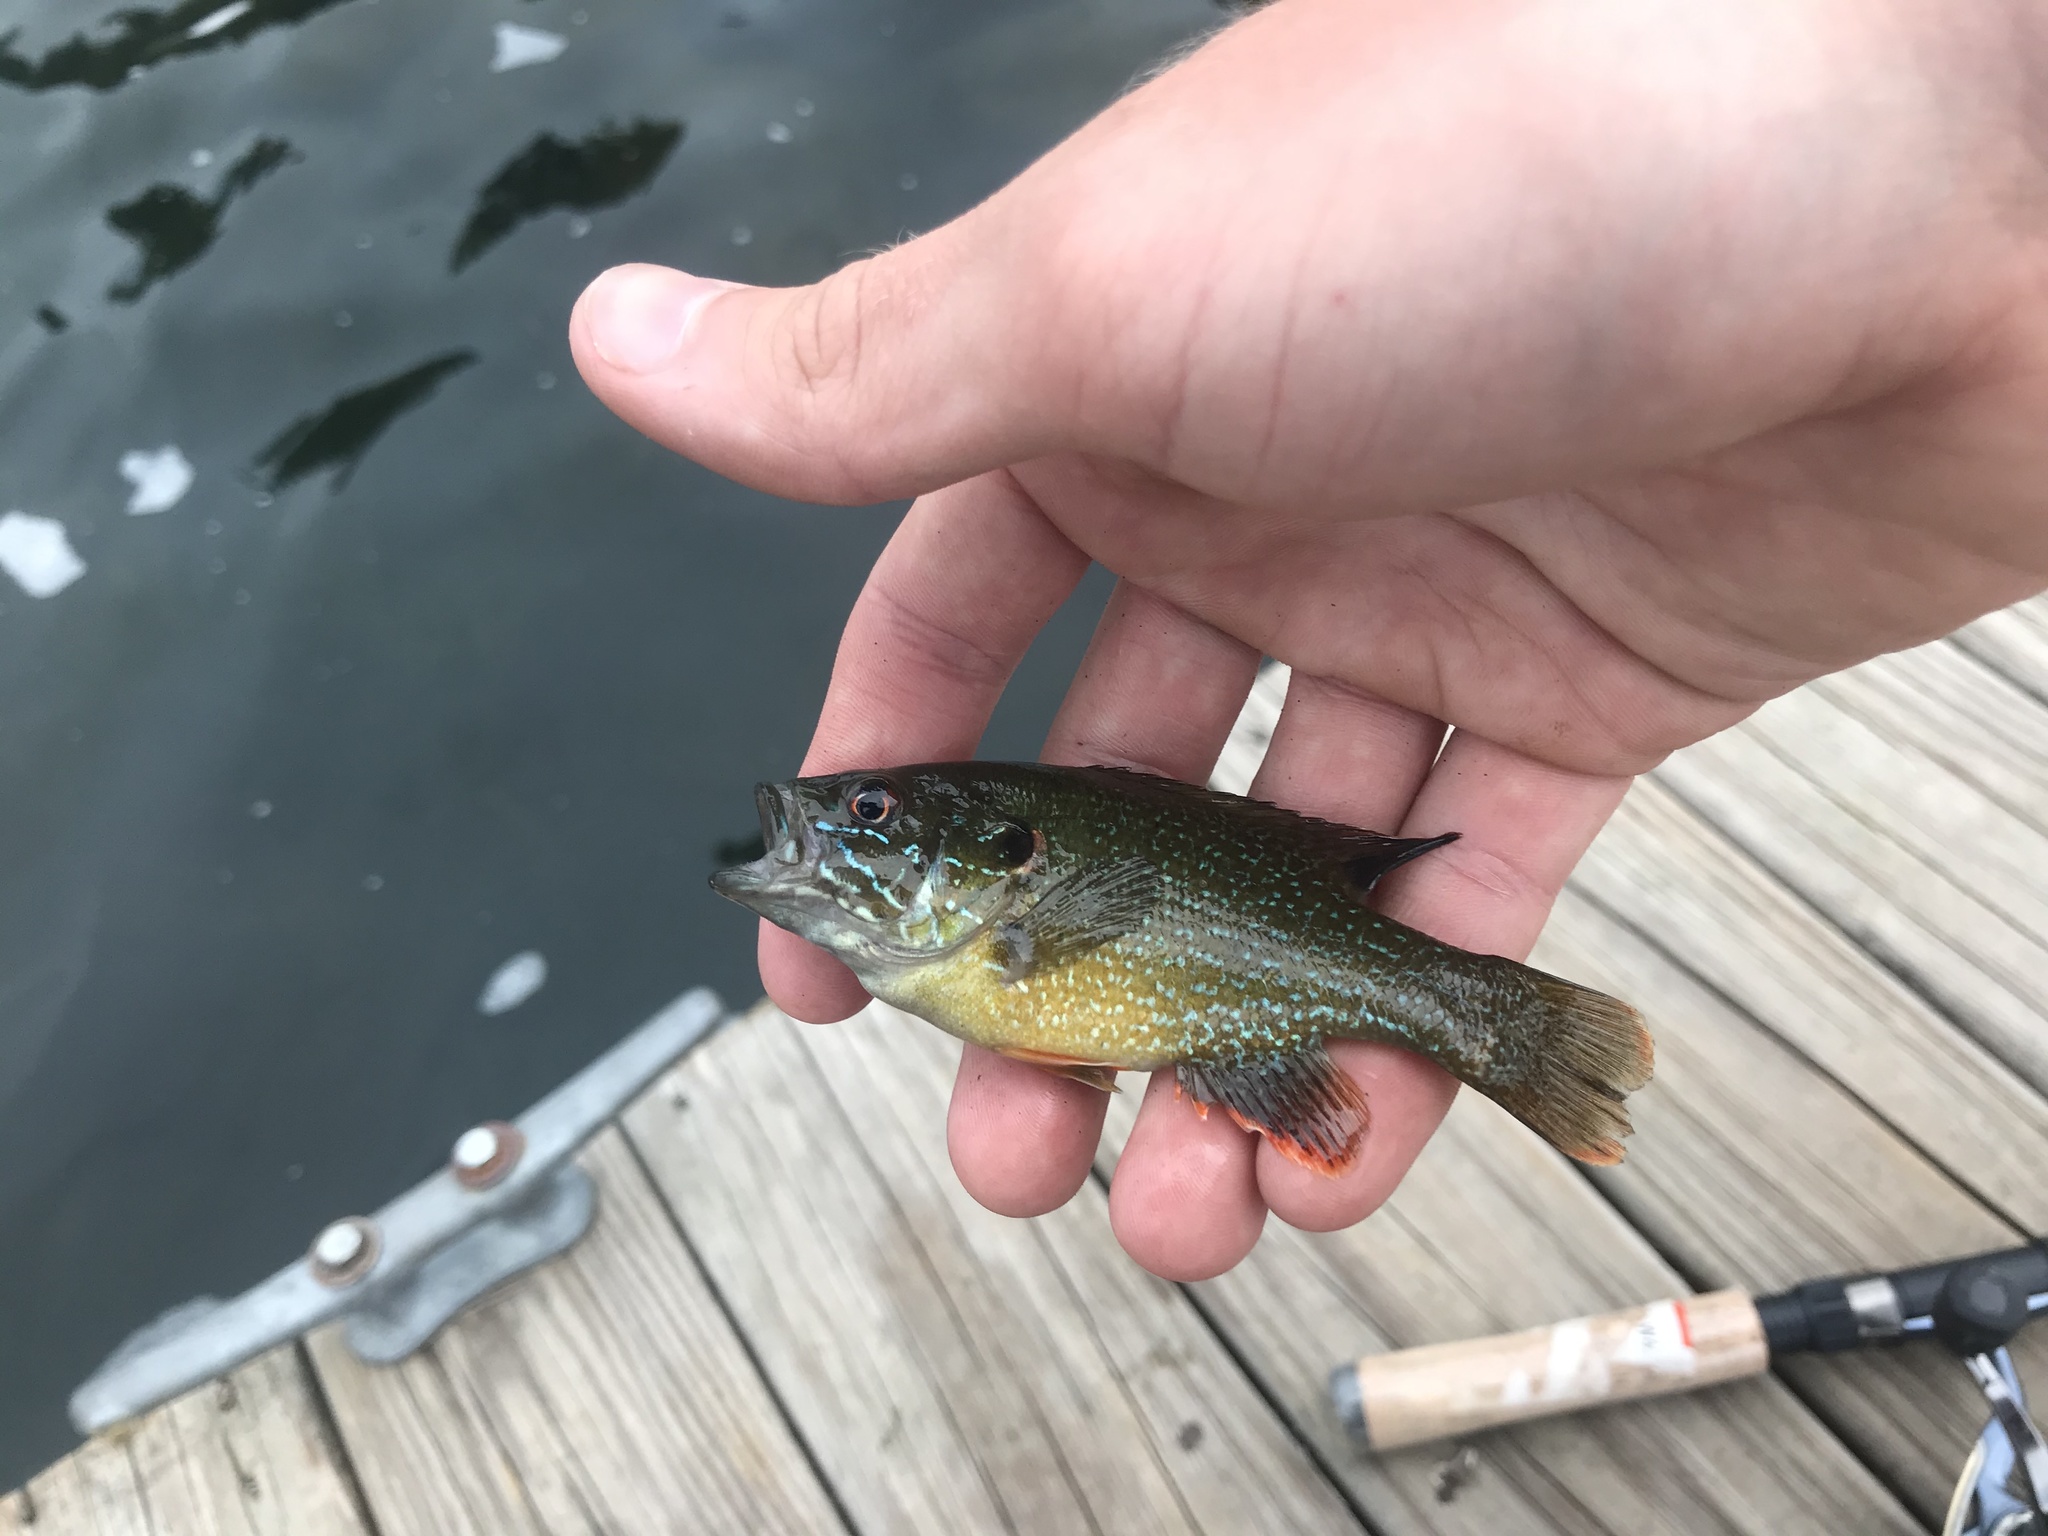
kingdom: Animalia
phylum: Chordata
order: Perciformes
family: Centrarchidae
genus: Lepomis
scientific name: Lepomis cyanellus
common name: Green sunfish
